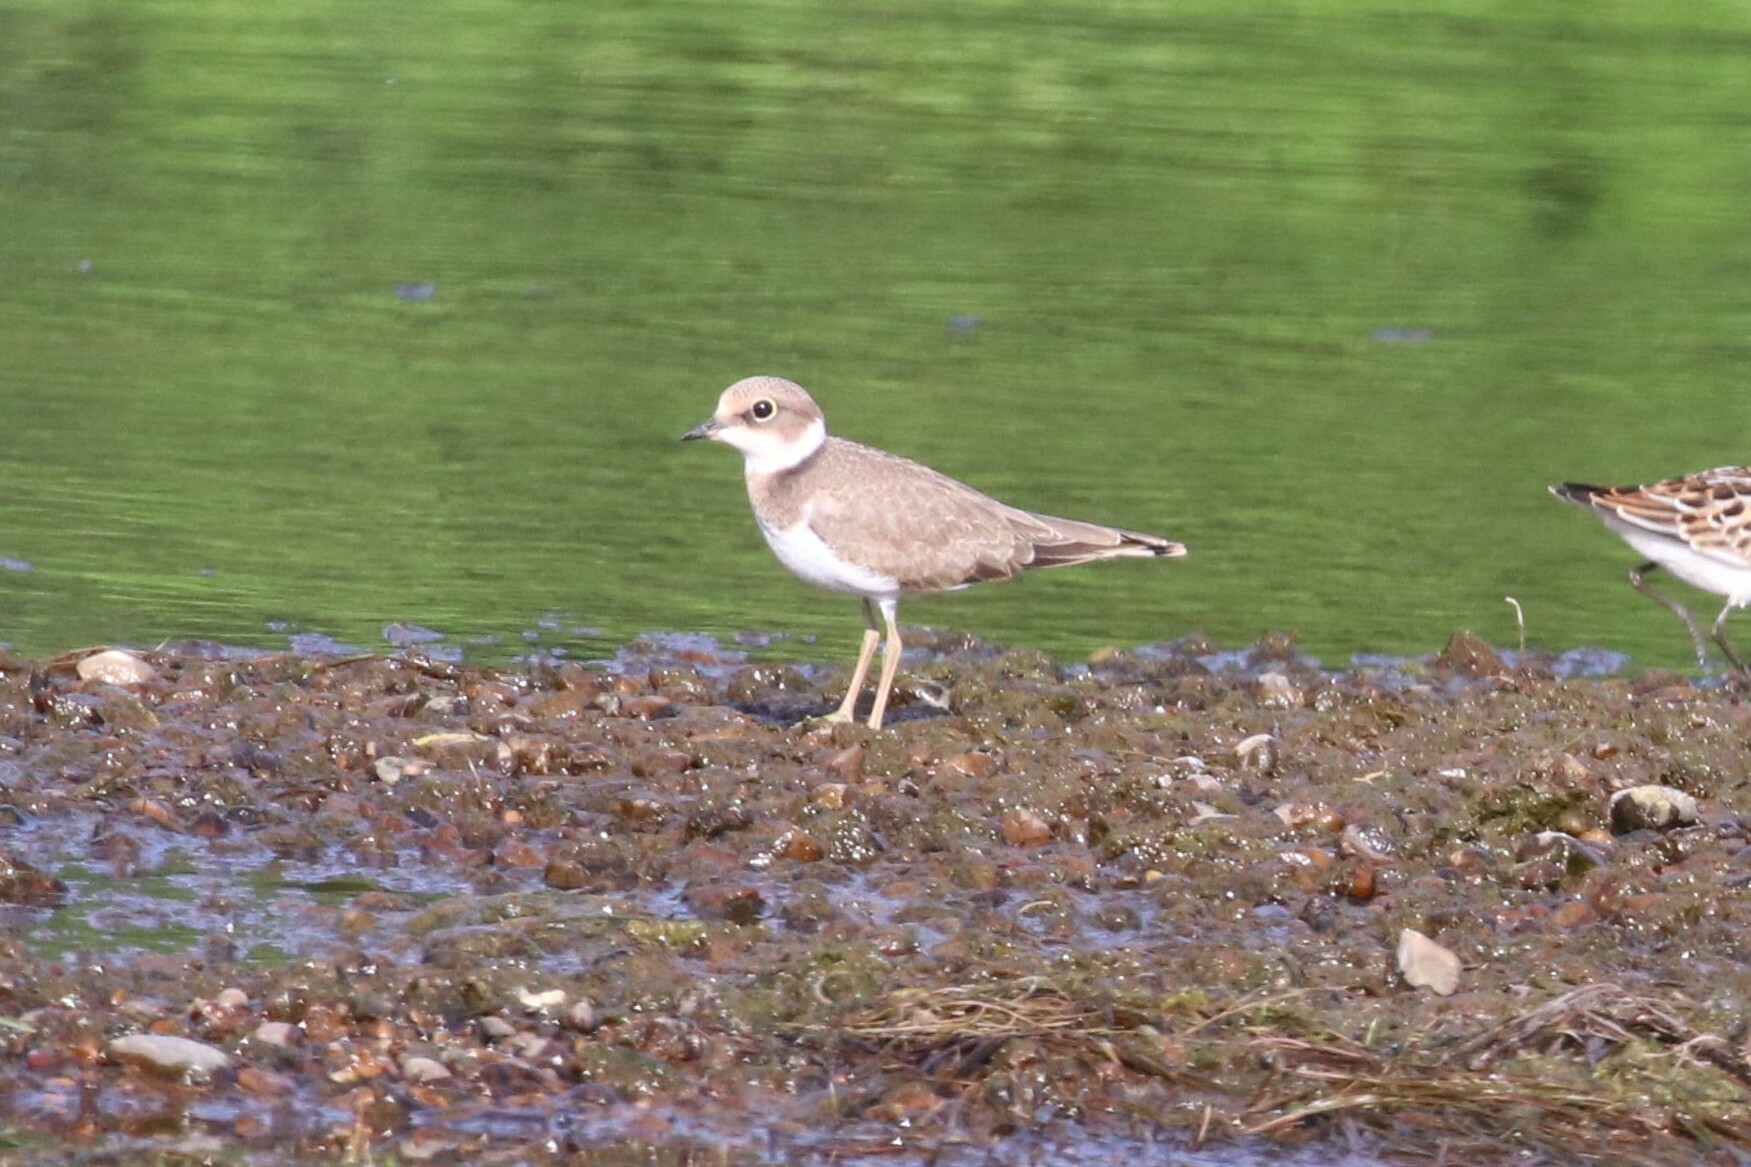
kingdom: Animalia
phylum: Chordata
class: Aves
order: Charadriiformes
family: Charadriidae
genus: Charadrius
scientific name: Charadrius dubius
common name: Little ringed plover
